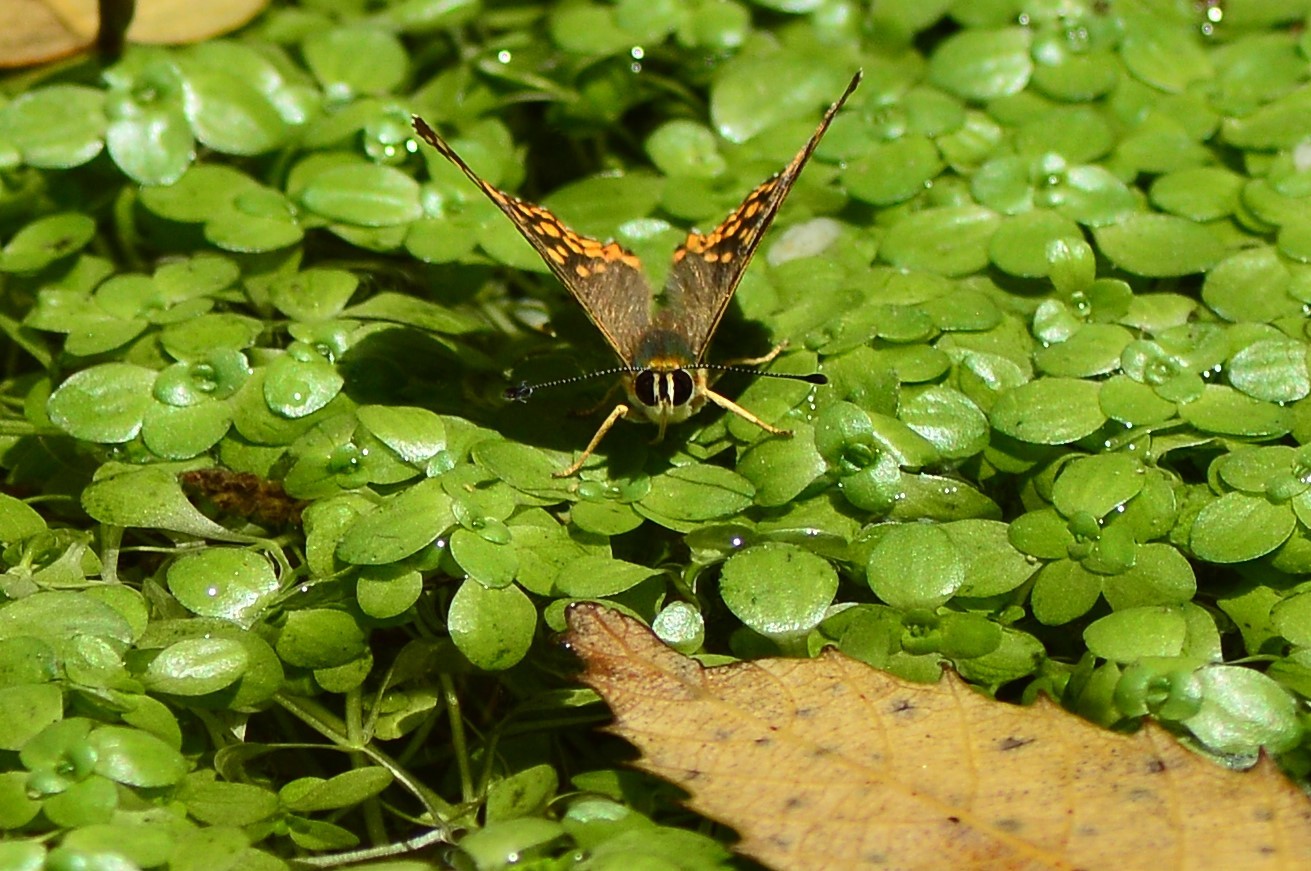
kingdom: Animalia
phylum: Arthropoda
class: Insecta
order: Lepidoptera
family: Lycaenidae
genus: Dodona
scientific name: Dodona durga
